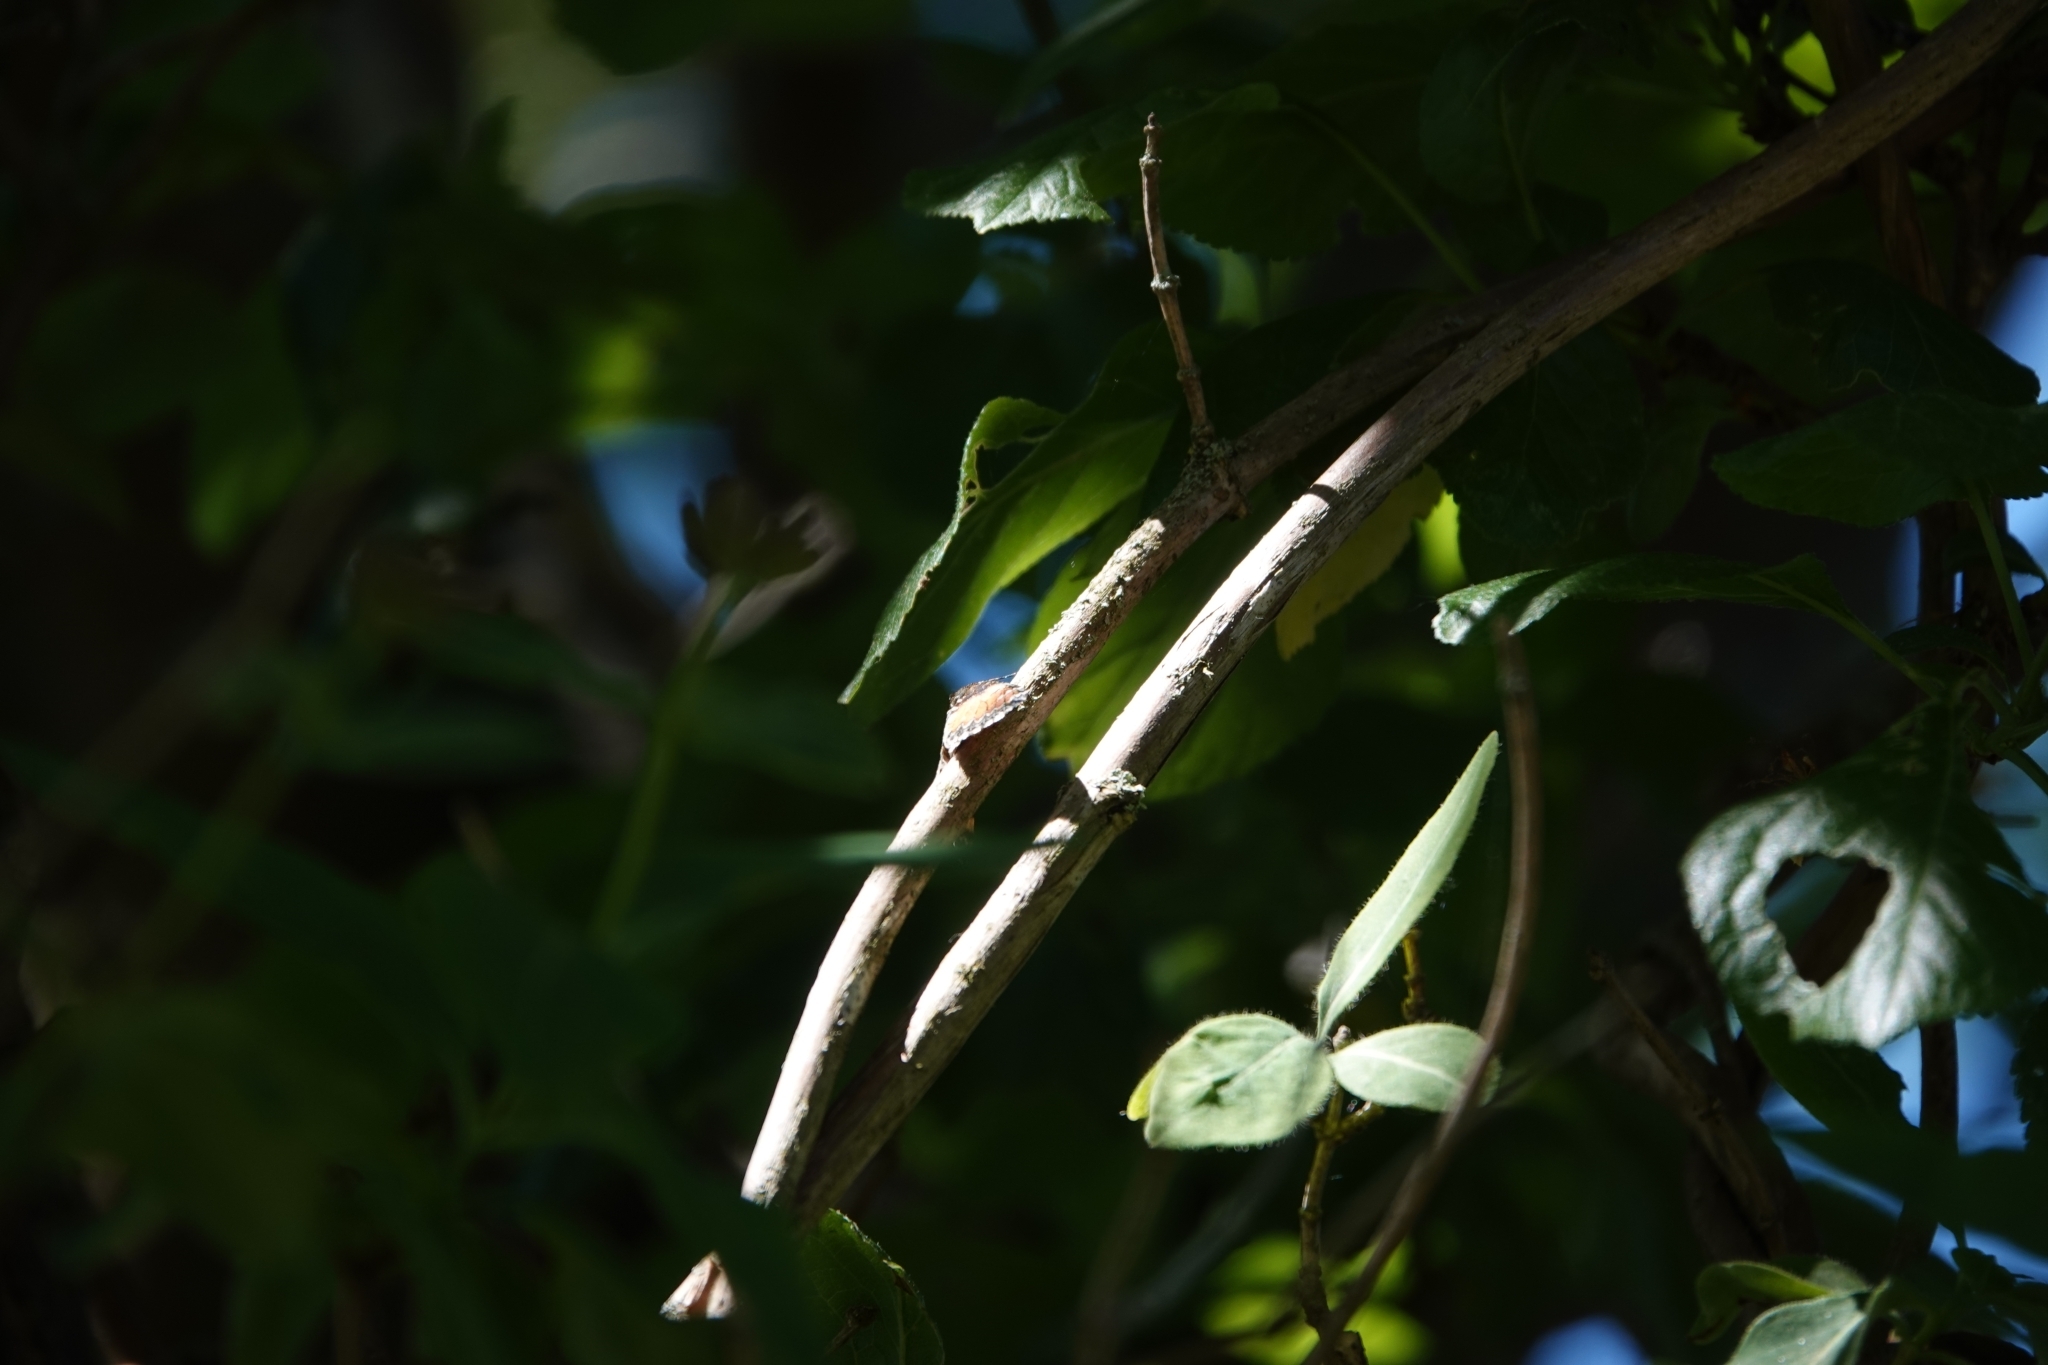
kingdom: Animalia
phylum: Arthropoda
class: Insecta
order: Lepidoptera
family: Geometridae
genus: Dysstroma
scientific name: Dysstroma truncata
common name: Common marbled carpet
